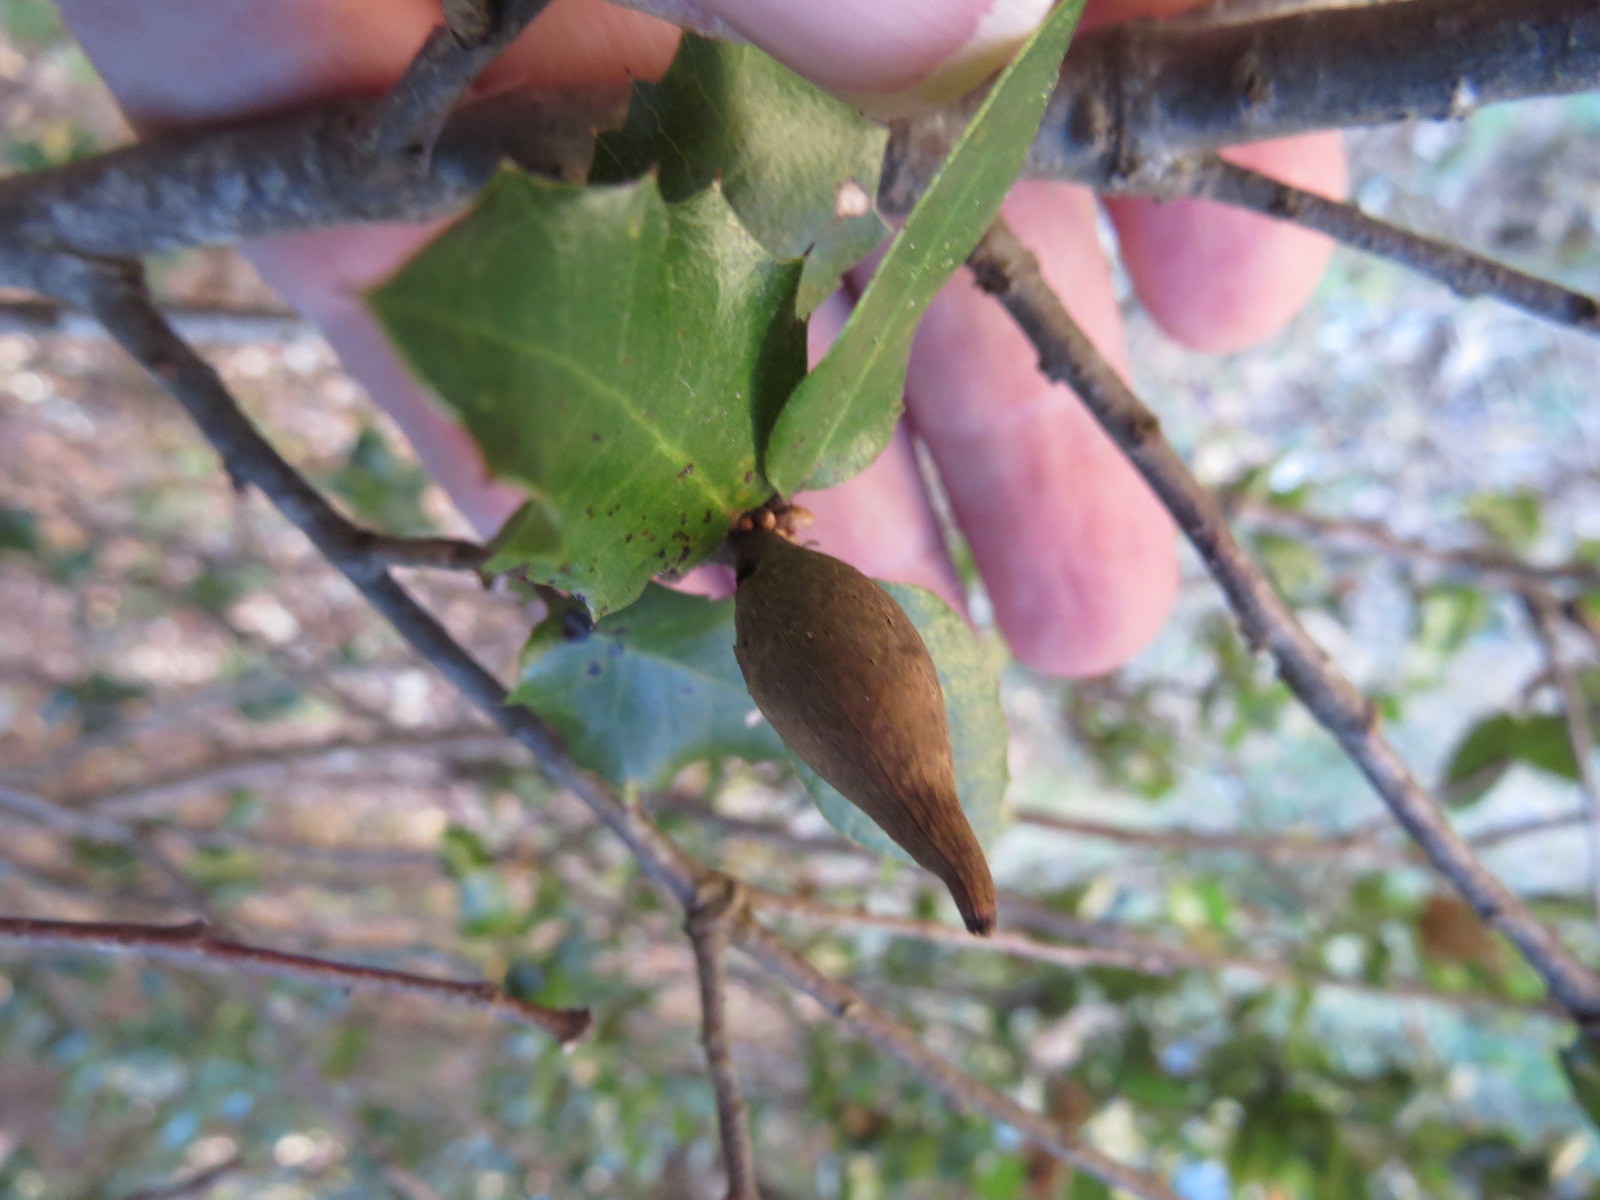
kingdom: Animalia
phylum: Arthropoda
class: Insecta
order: Hymenoptera
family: Cynipidae
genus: Heteroecus
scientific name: Heteroecus pacificus
